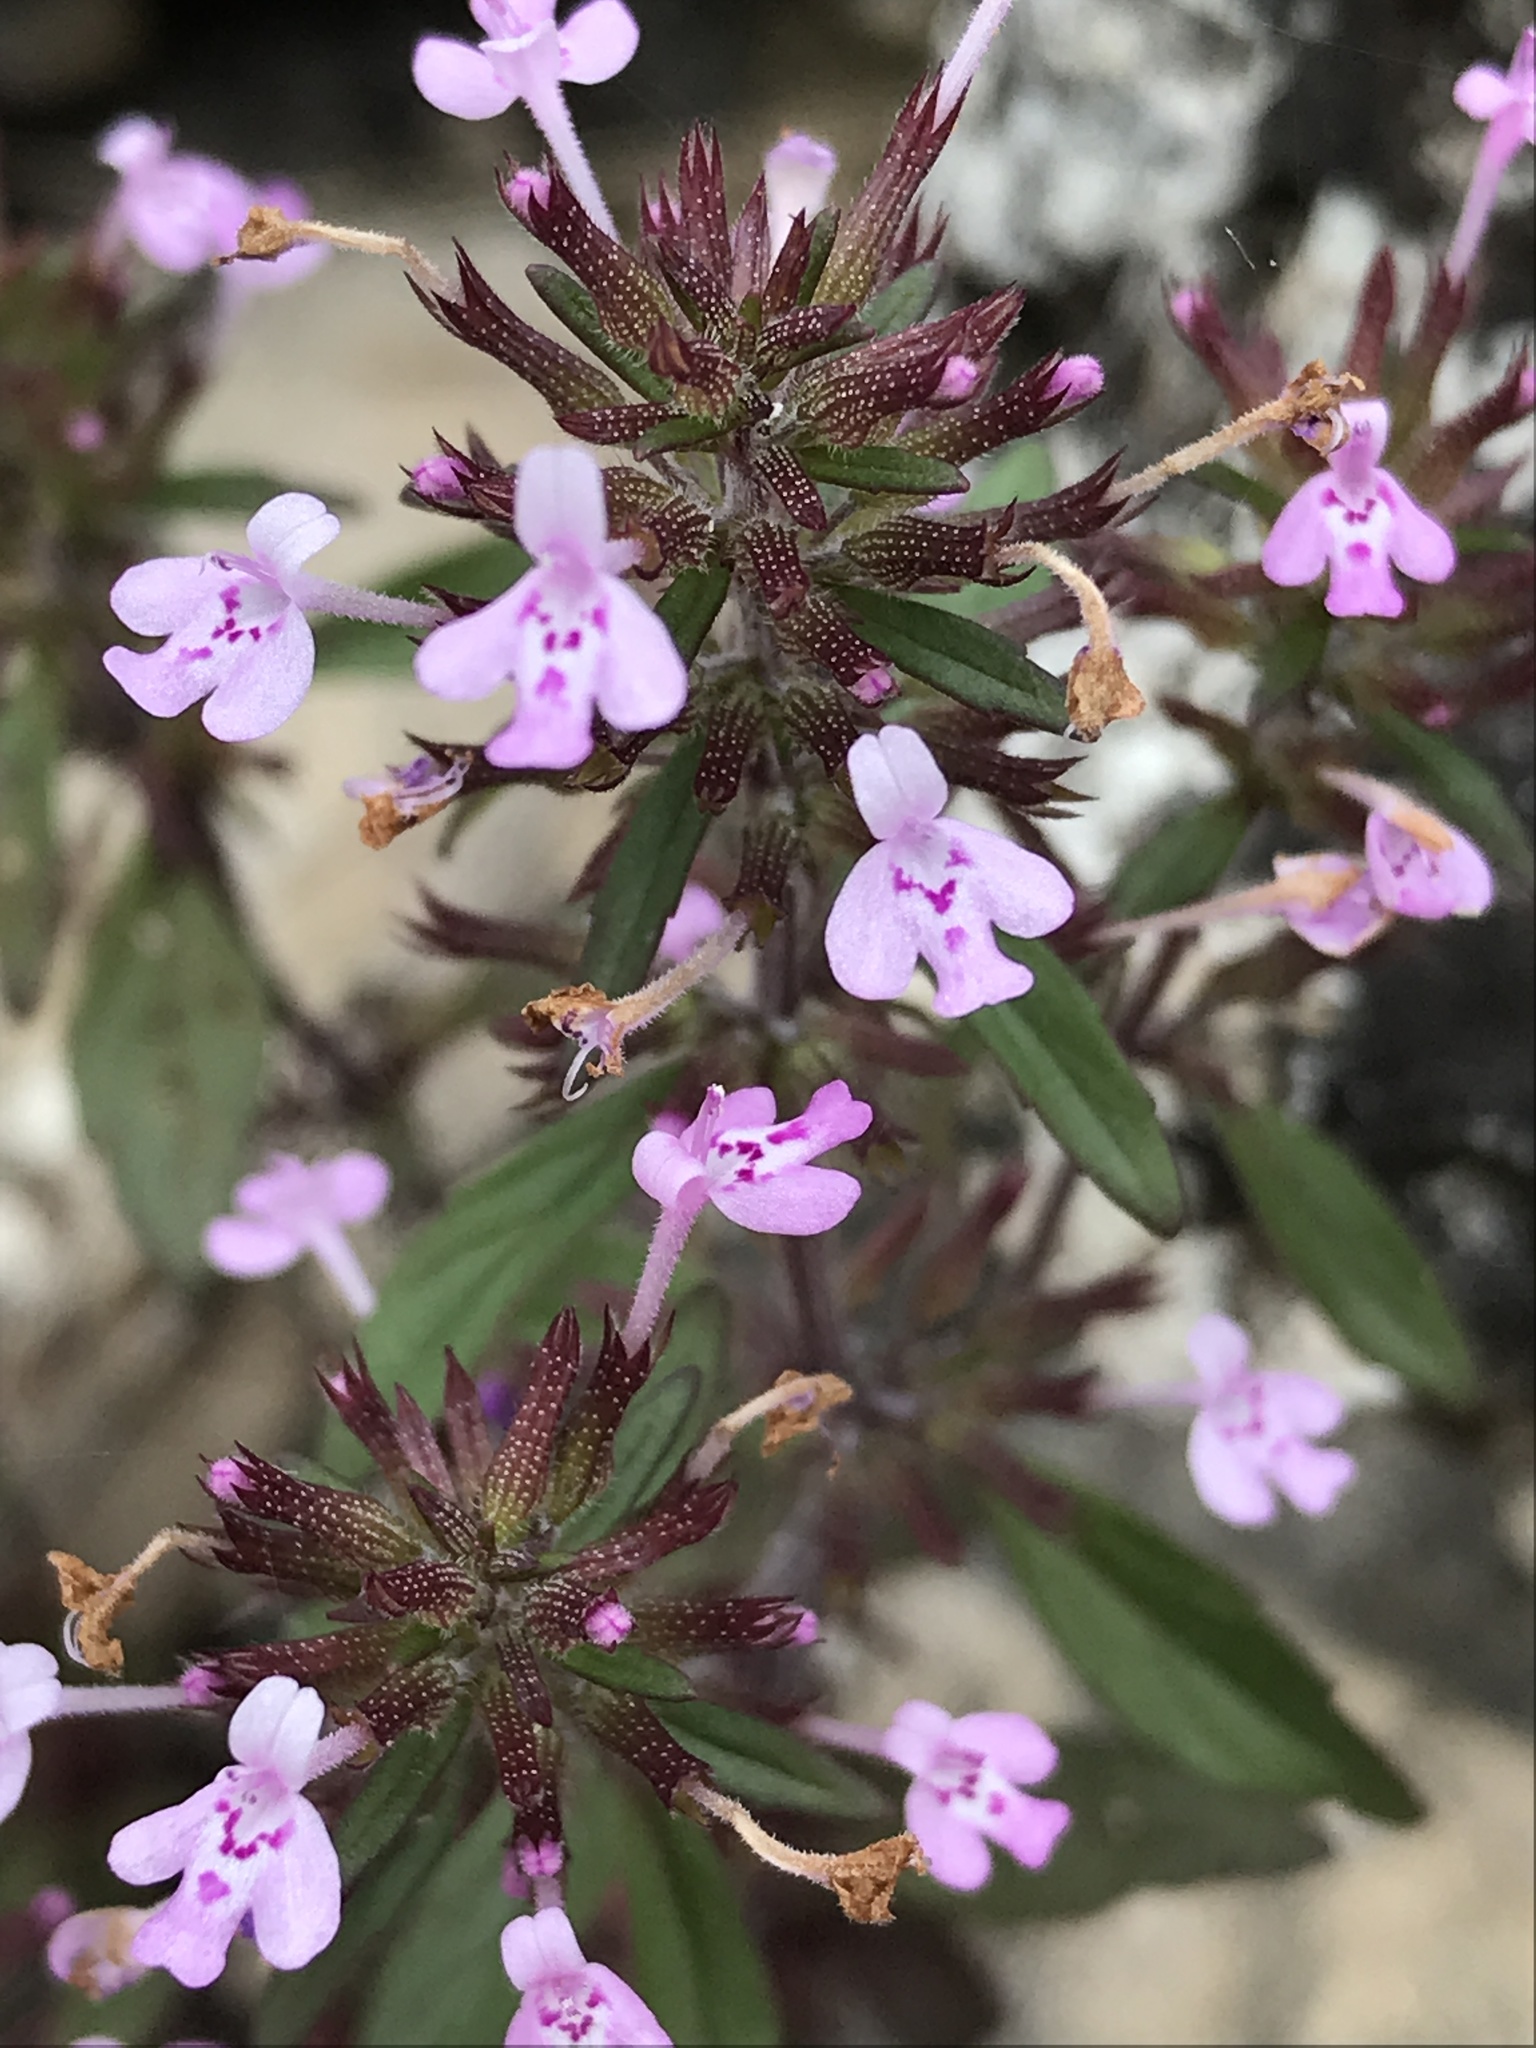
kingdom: Plantae
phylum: Tracheophyta
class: Magnoliopsida
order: Lamiales
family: Lamiaceae
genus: Hedeoma
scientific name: Hedeoma acinoides
